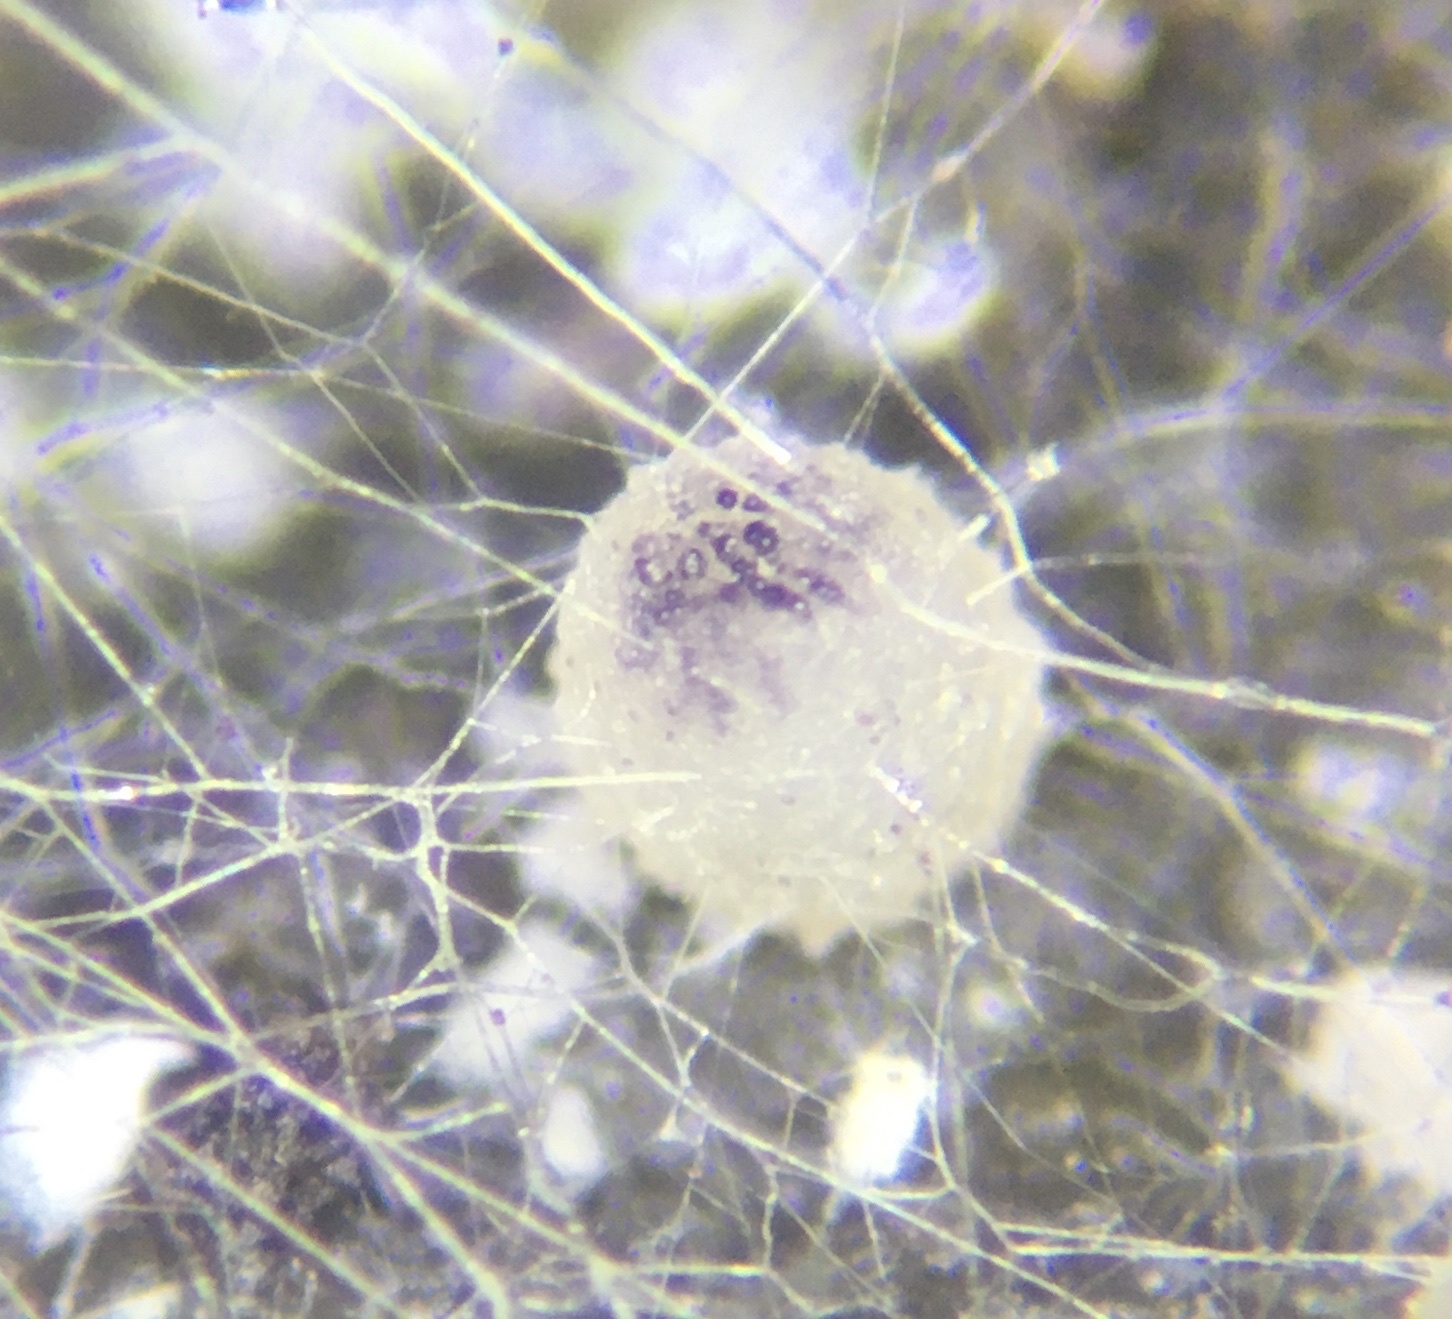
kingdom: Fungi
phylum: Ascomycota
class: Pezizomycetes
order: Pezizales
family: Ascobolaceae
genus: Ascobolus
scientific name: Ascobolus albidus
